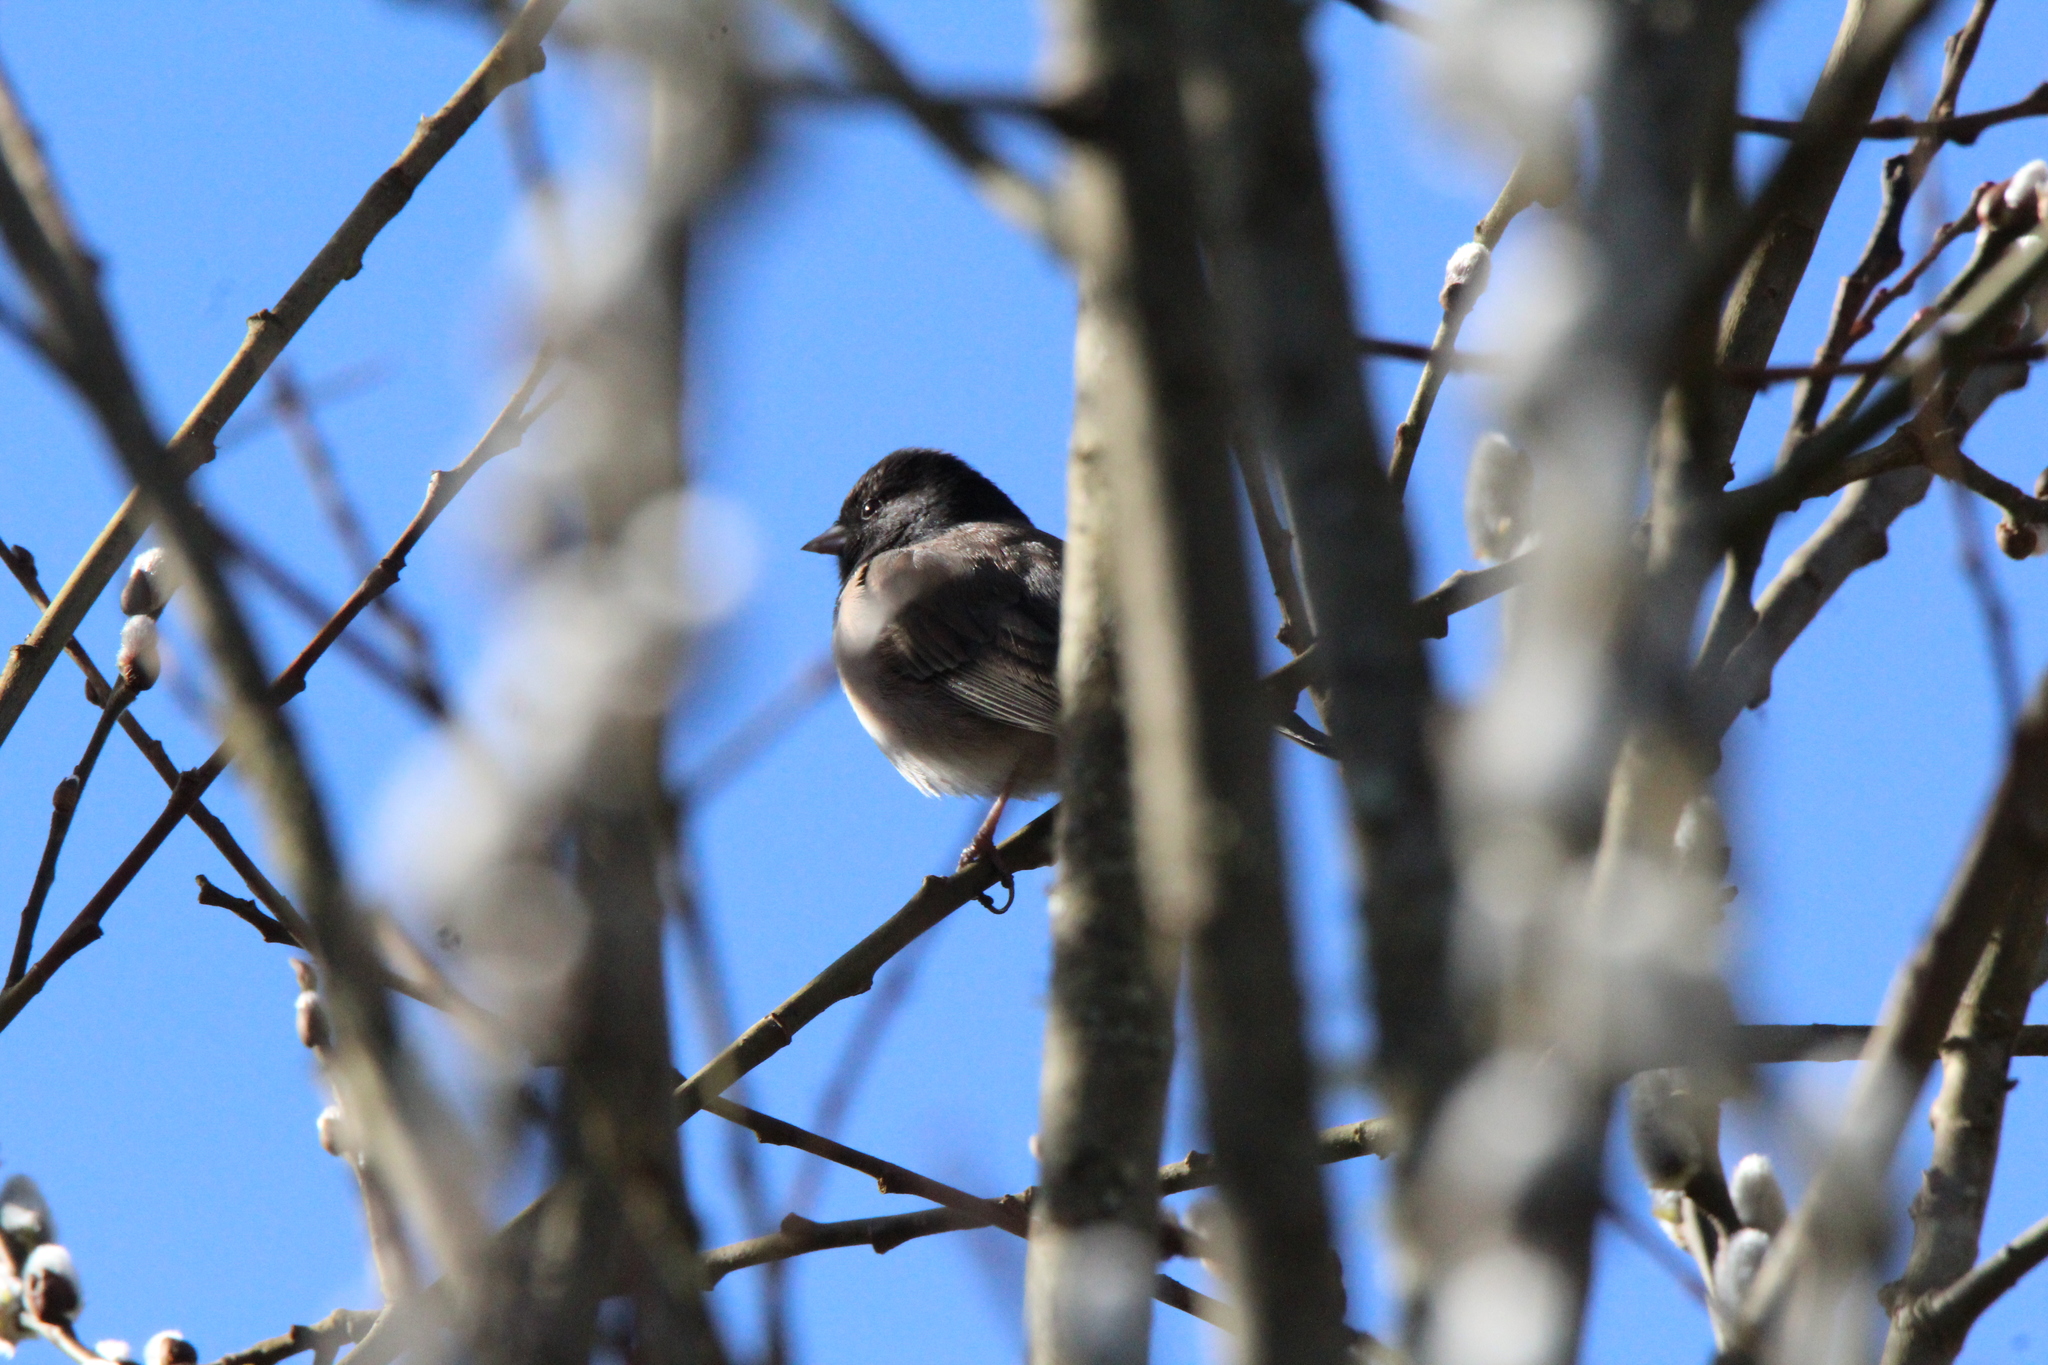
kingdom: Animalia
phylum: Chordata
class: Aves
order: Passeriformes
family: Passerellidae
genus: Junco
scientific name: Junco hyemalis
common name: Dark-eyed junco
